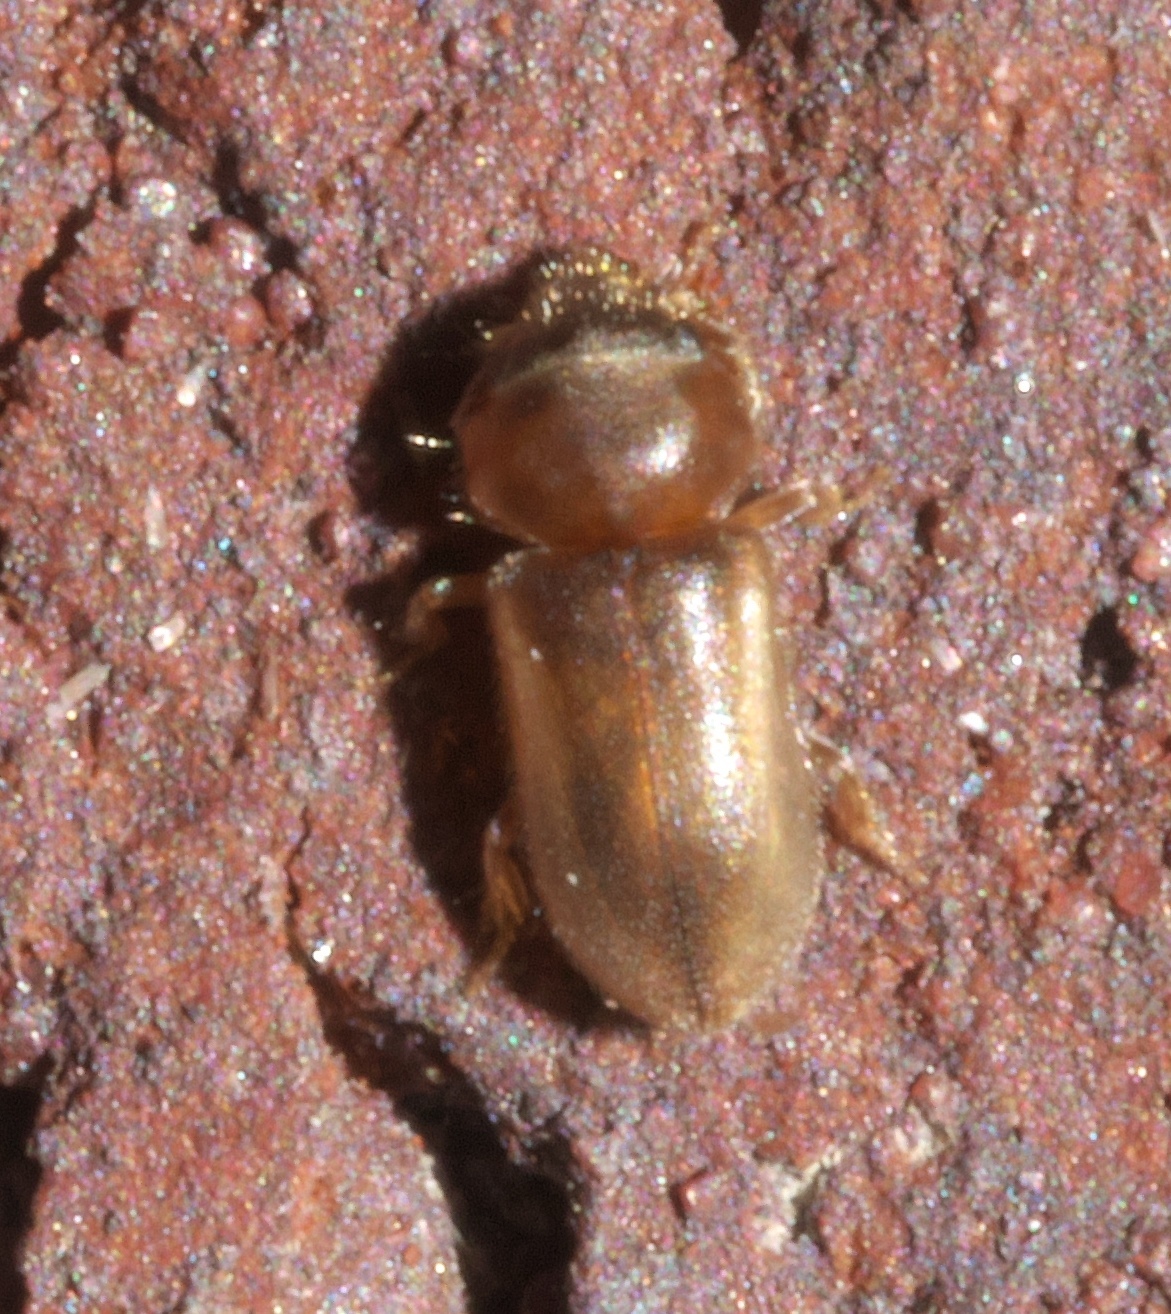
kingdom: Animalia
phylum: Arthropoda
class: Insecta
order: Coleoptera
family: Heteroceridae
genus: Tropicus
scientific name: Tropicus pusillus
